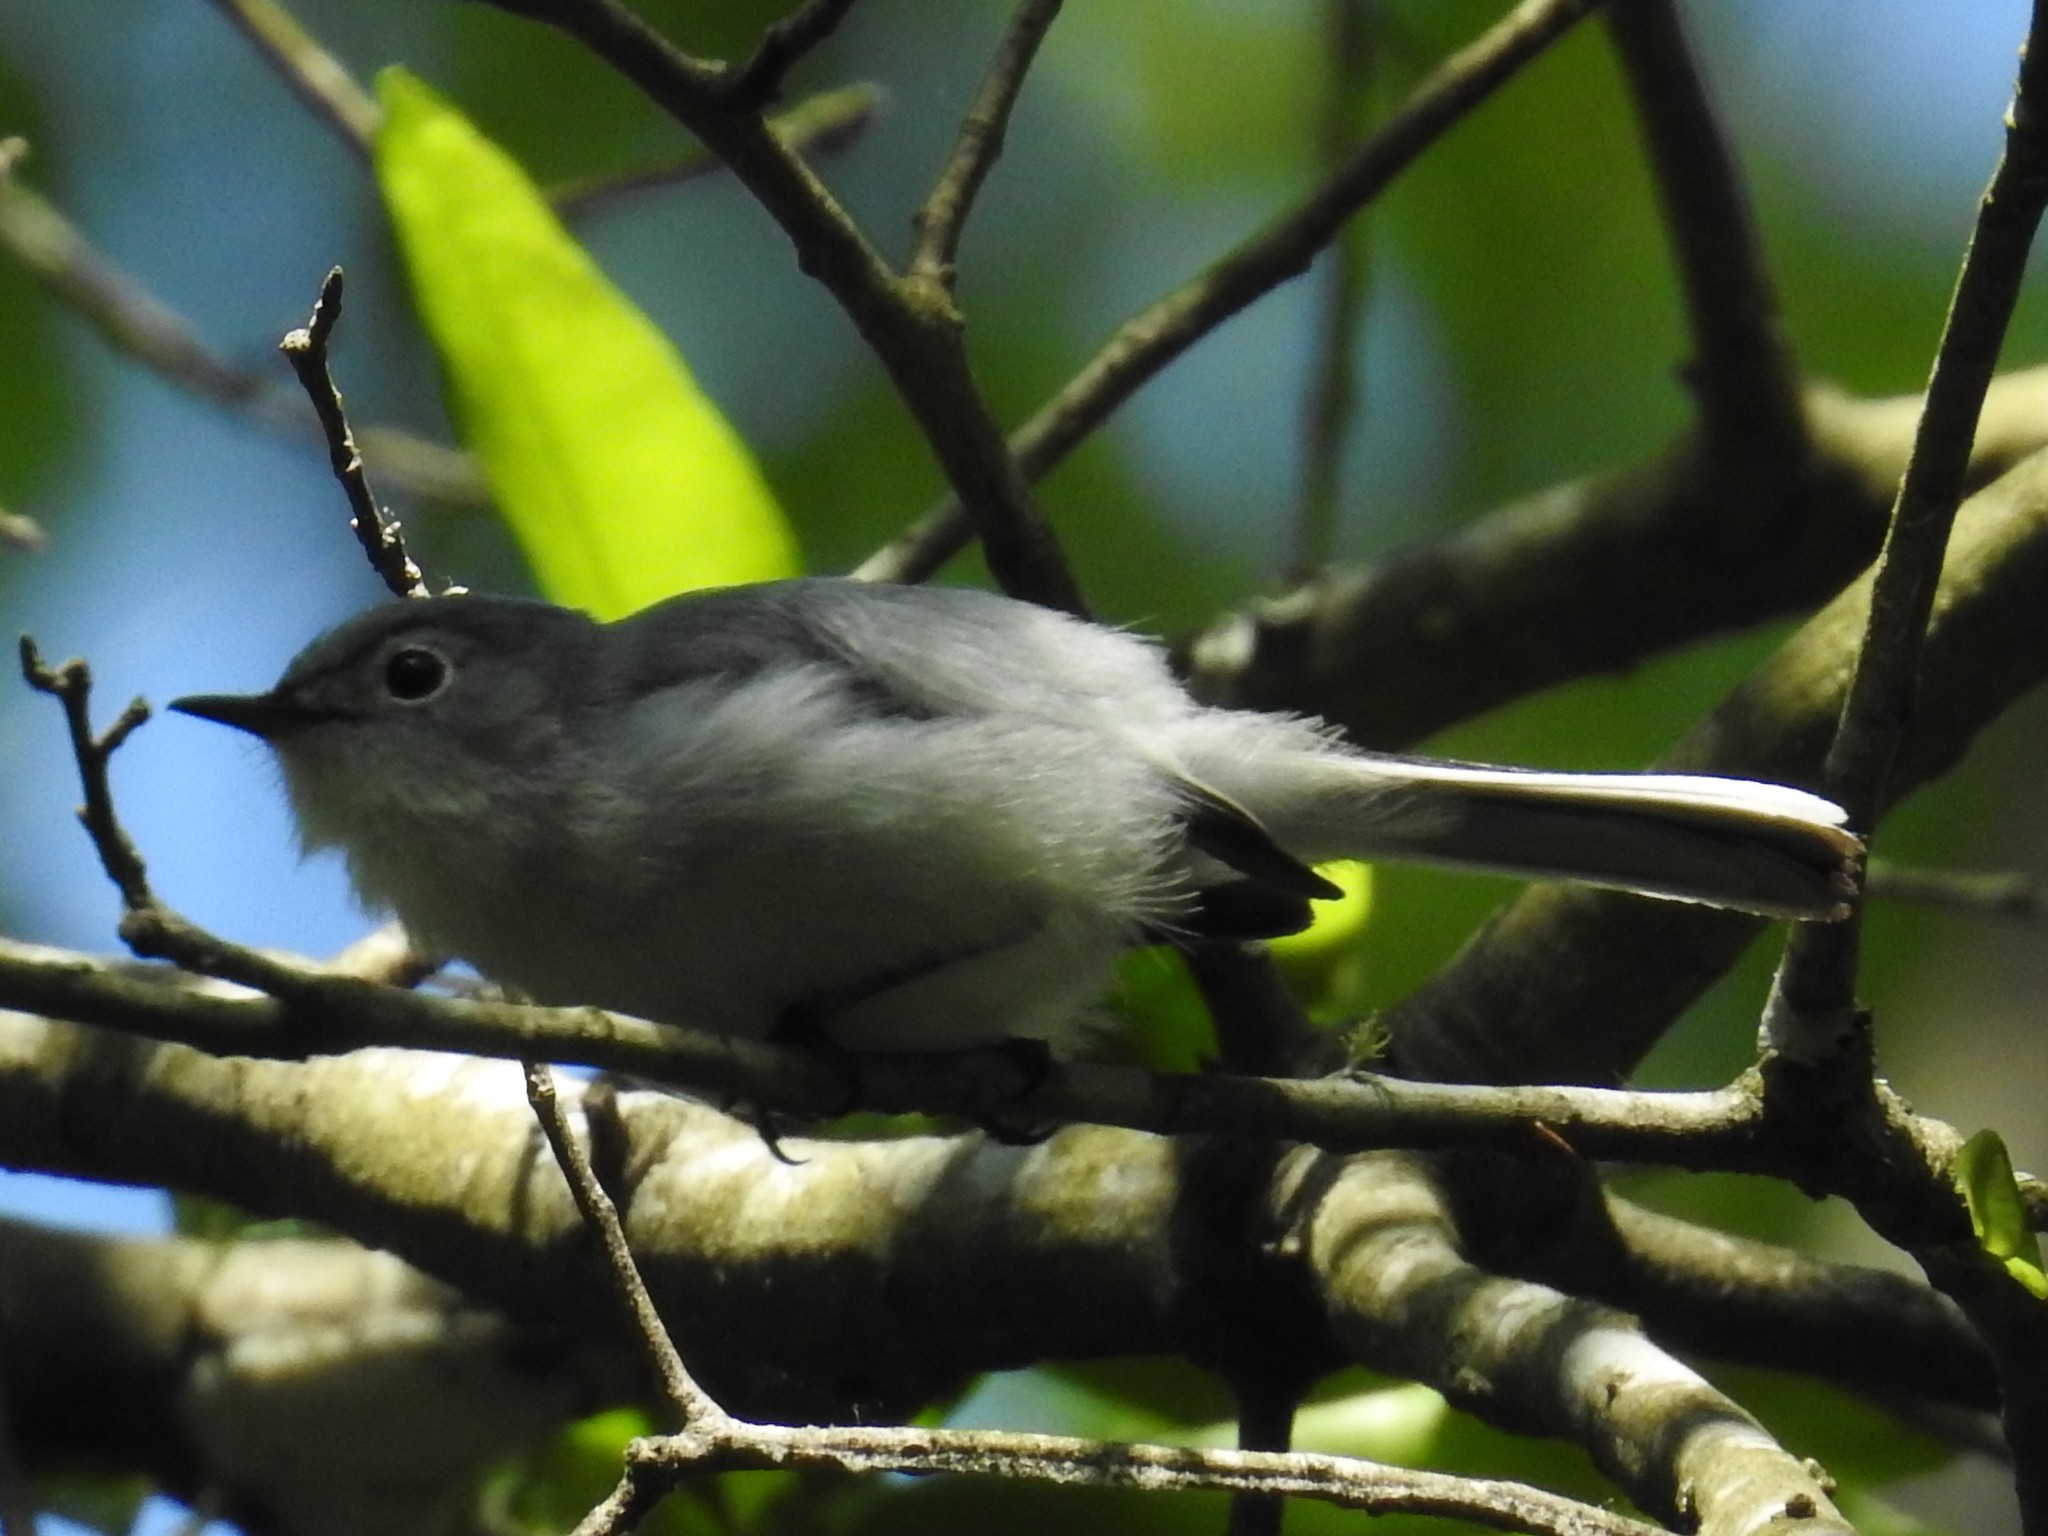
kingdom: Animalia
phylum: Chordata
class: Aves
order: Passeriformes
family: Polioptilidae
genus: Polioptila
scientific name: Polioptila caerulea
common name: Blue-gray gnatcatcher
